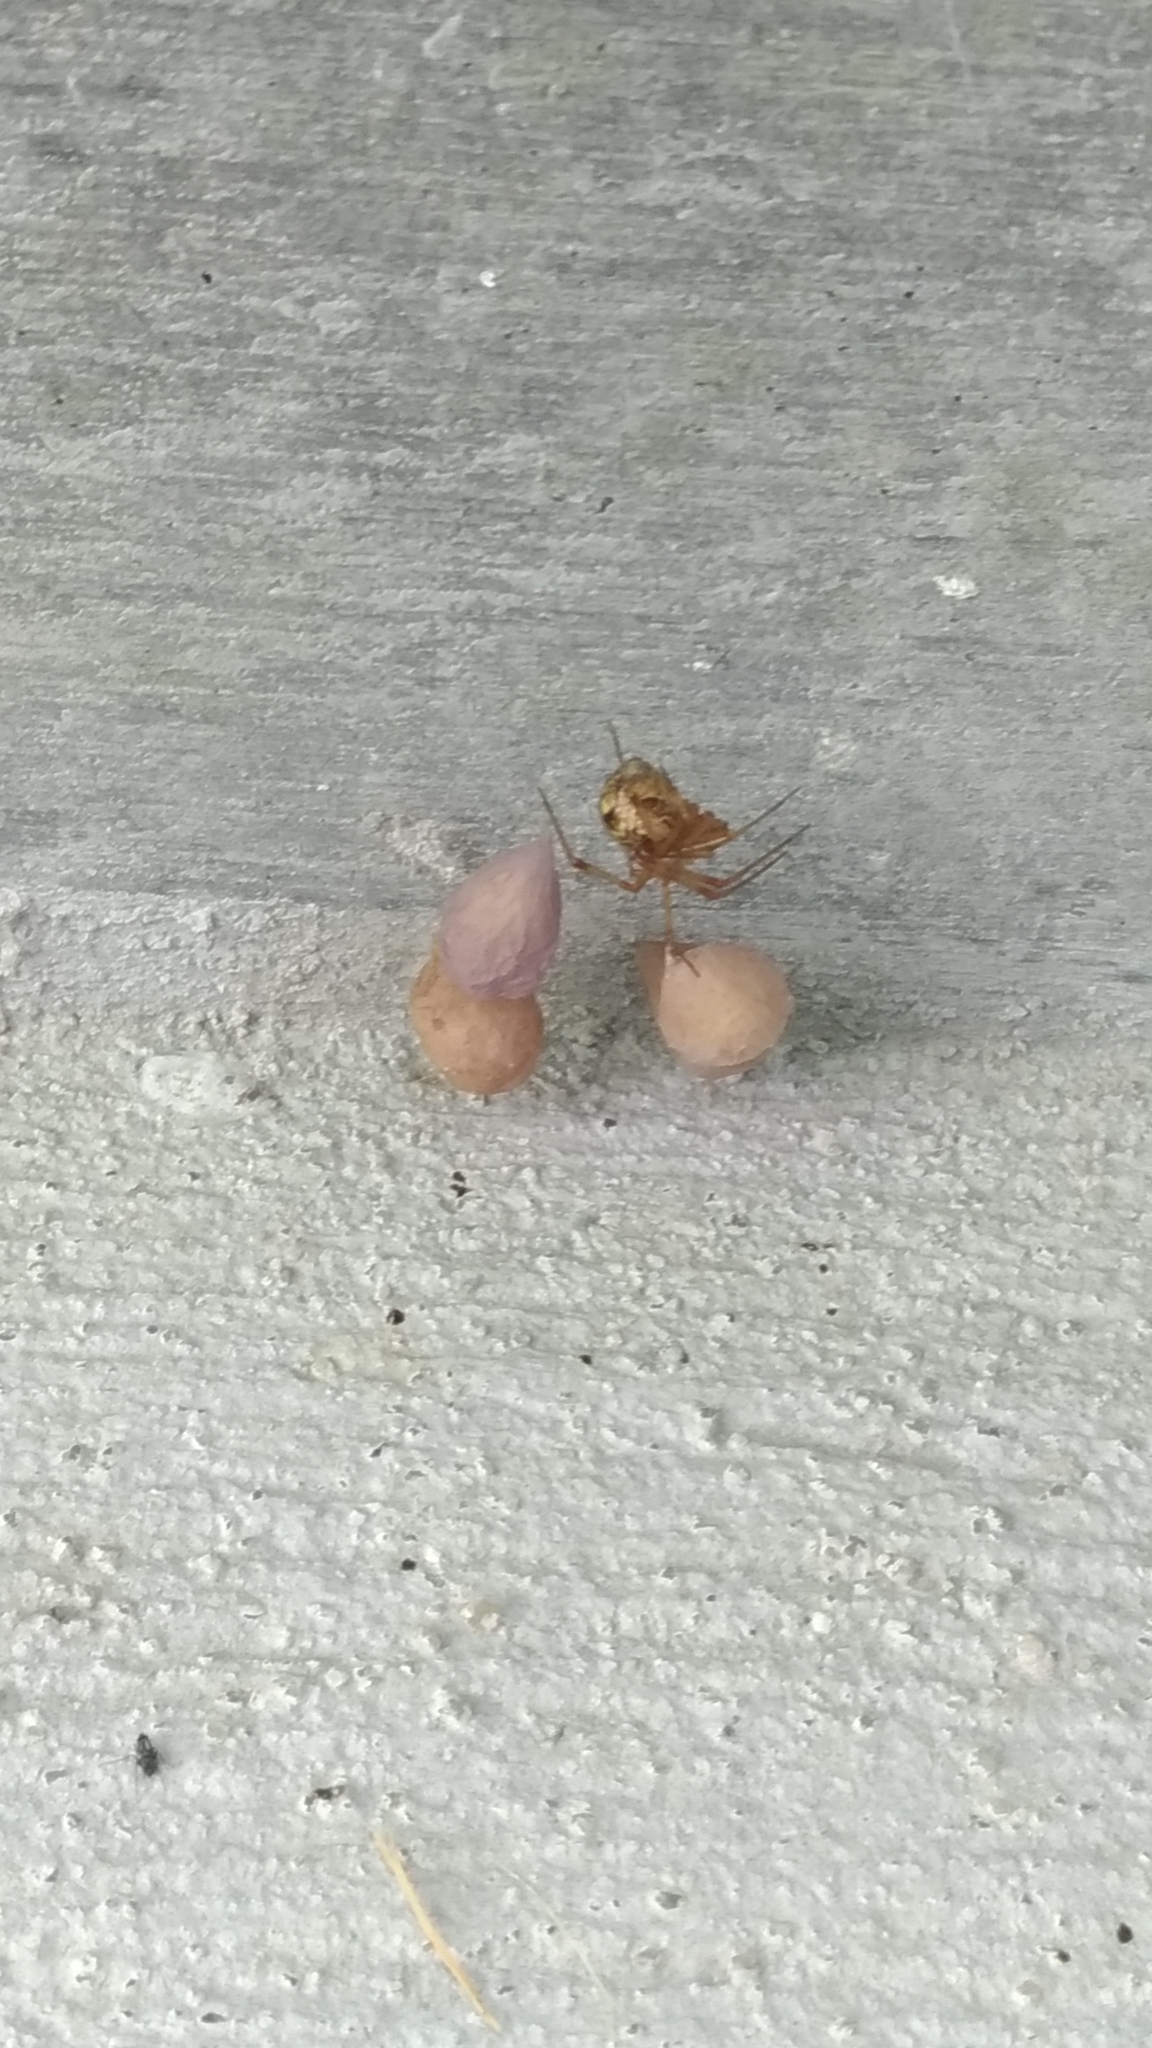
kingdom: Animalia
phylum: Arthropoda
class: Arachnida
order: Araneae
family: Theridiidae
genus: Parasteatoda
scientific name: Parasteatoda tepidariorum
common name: Common house spider
